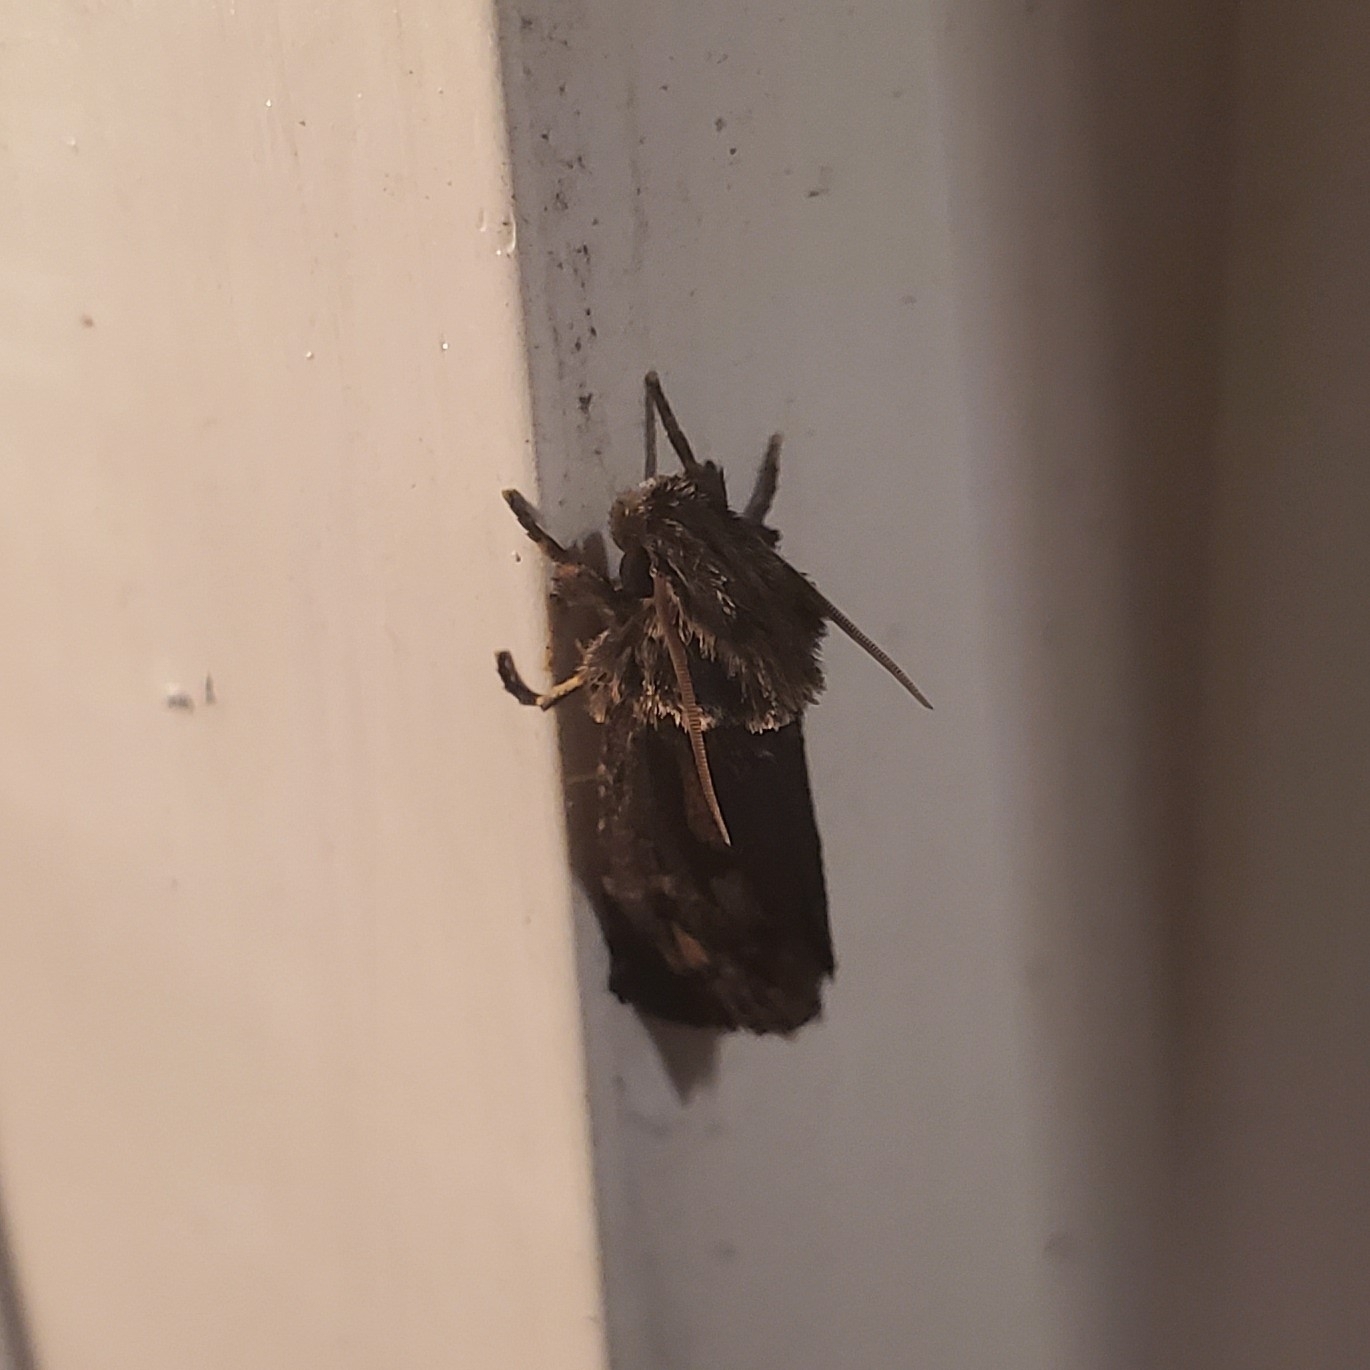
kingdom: Animalia
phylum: Arthropoda
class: Insecta
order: Lepidoptera
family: Tineidae
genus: Acrolophus
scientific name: Acrolophus popeanella
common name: Clemens' grass tubeworm moth
